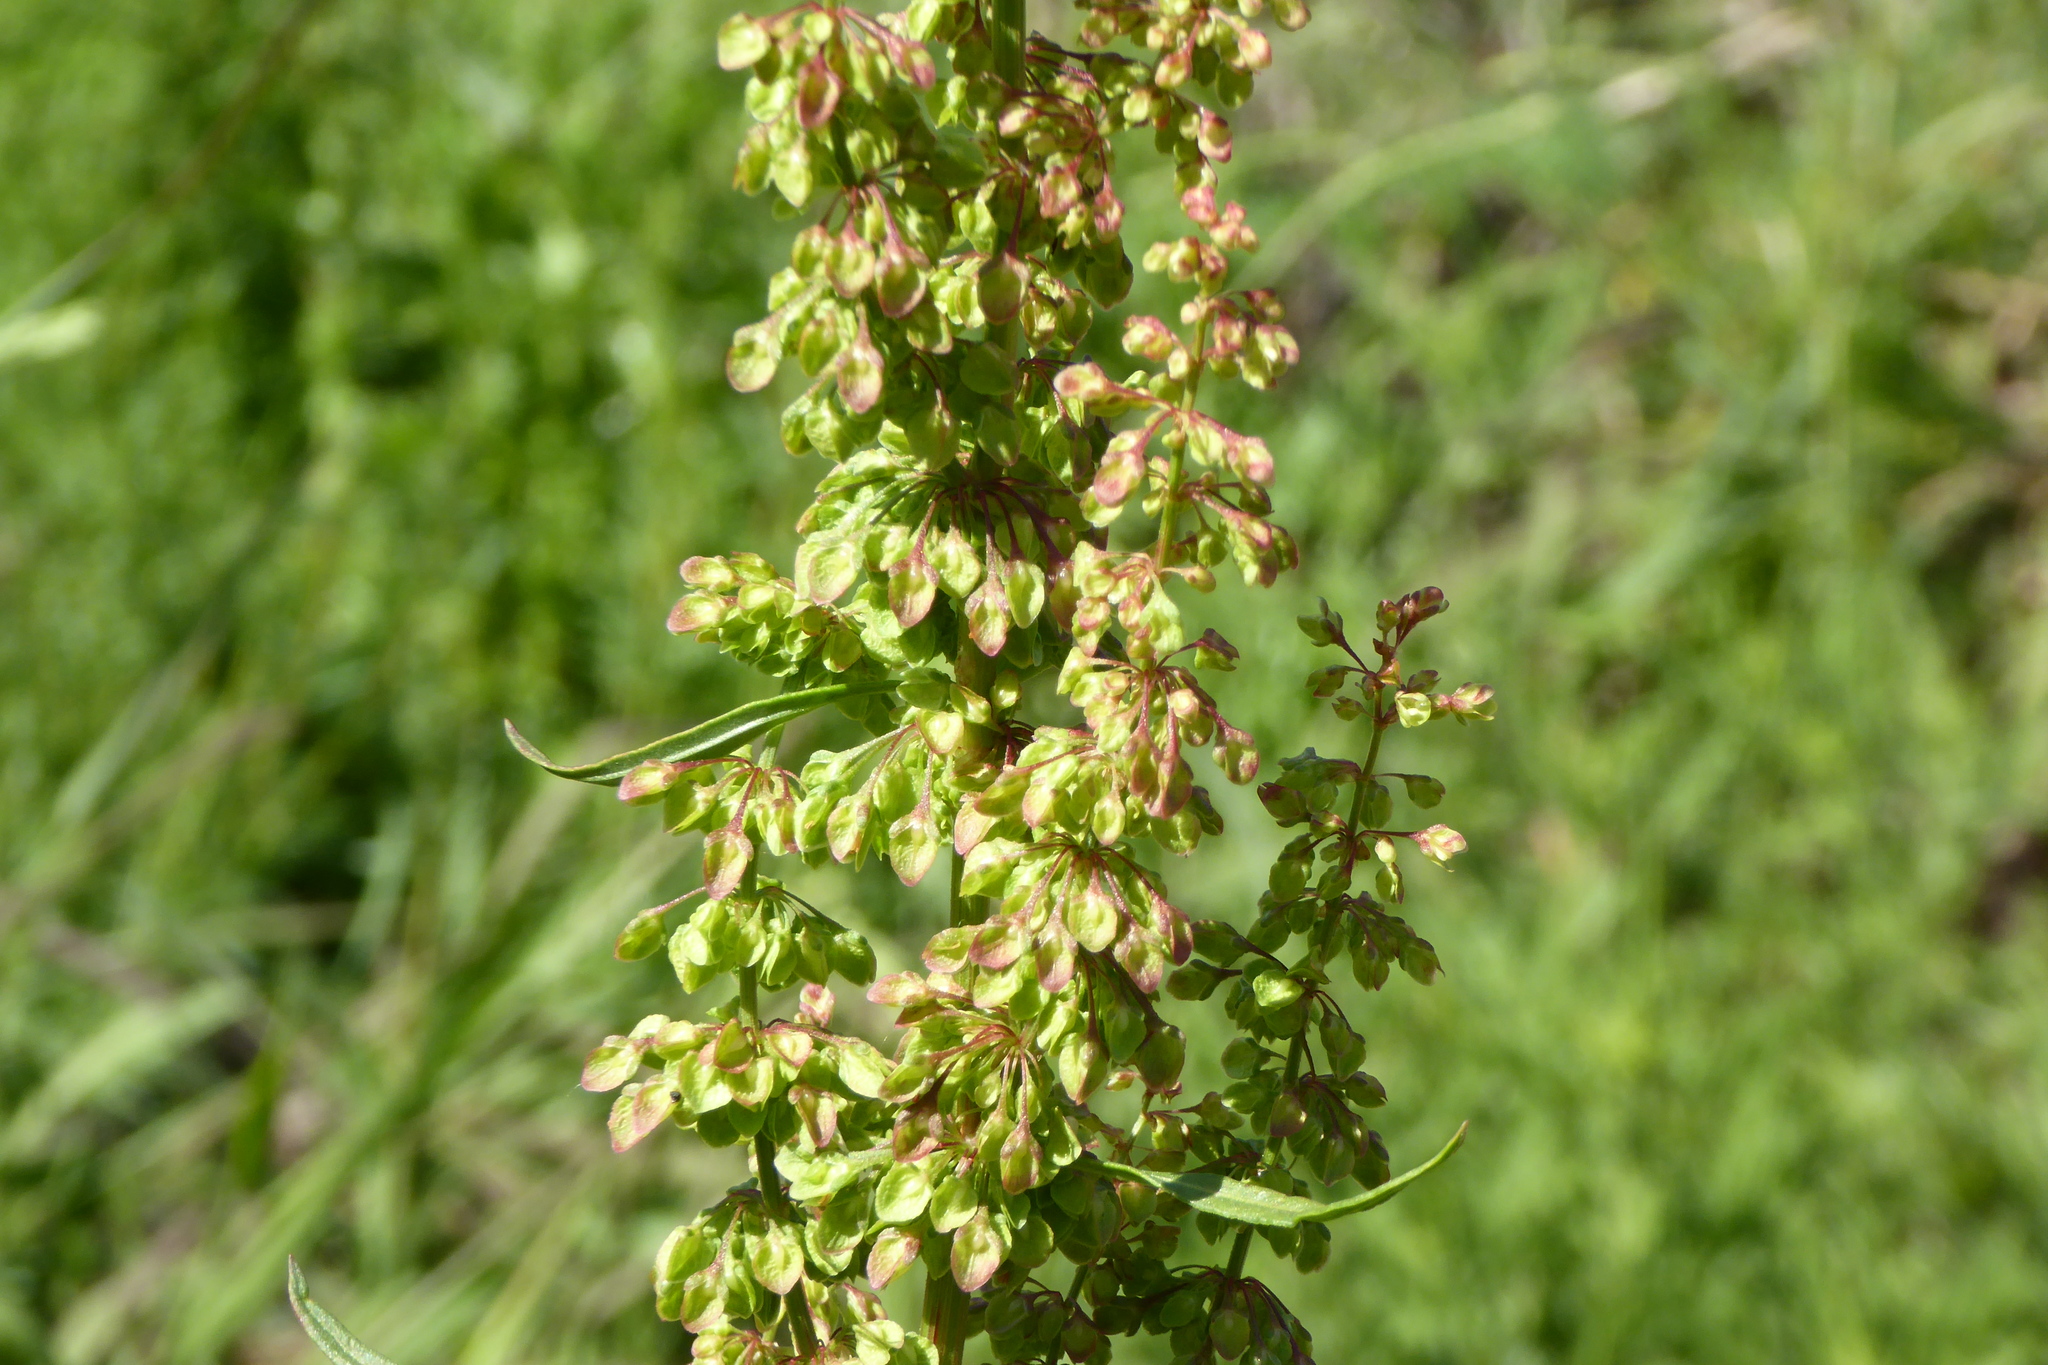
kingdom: Plantae
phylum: Tracheophyta
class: Magnoliopsida
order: Caryophyllales
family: Polygonaceae
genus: Rumex
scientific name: Rumex crispus
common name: Curled dock
